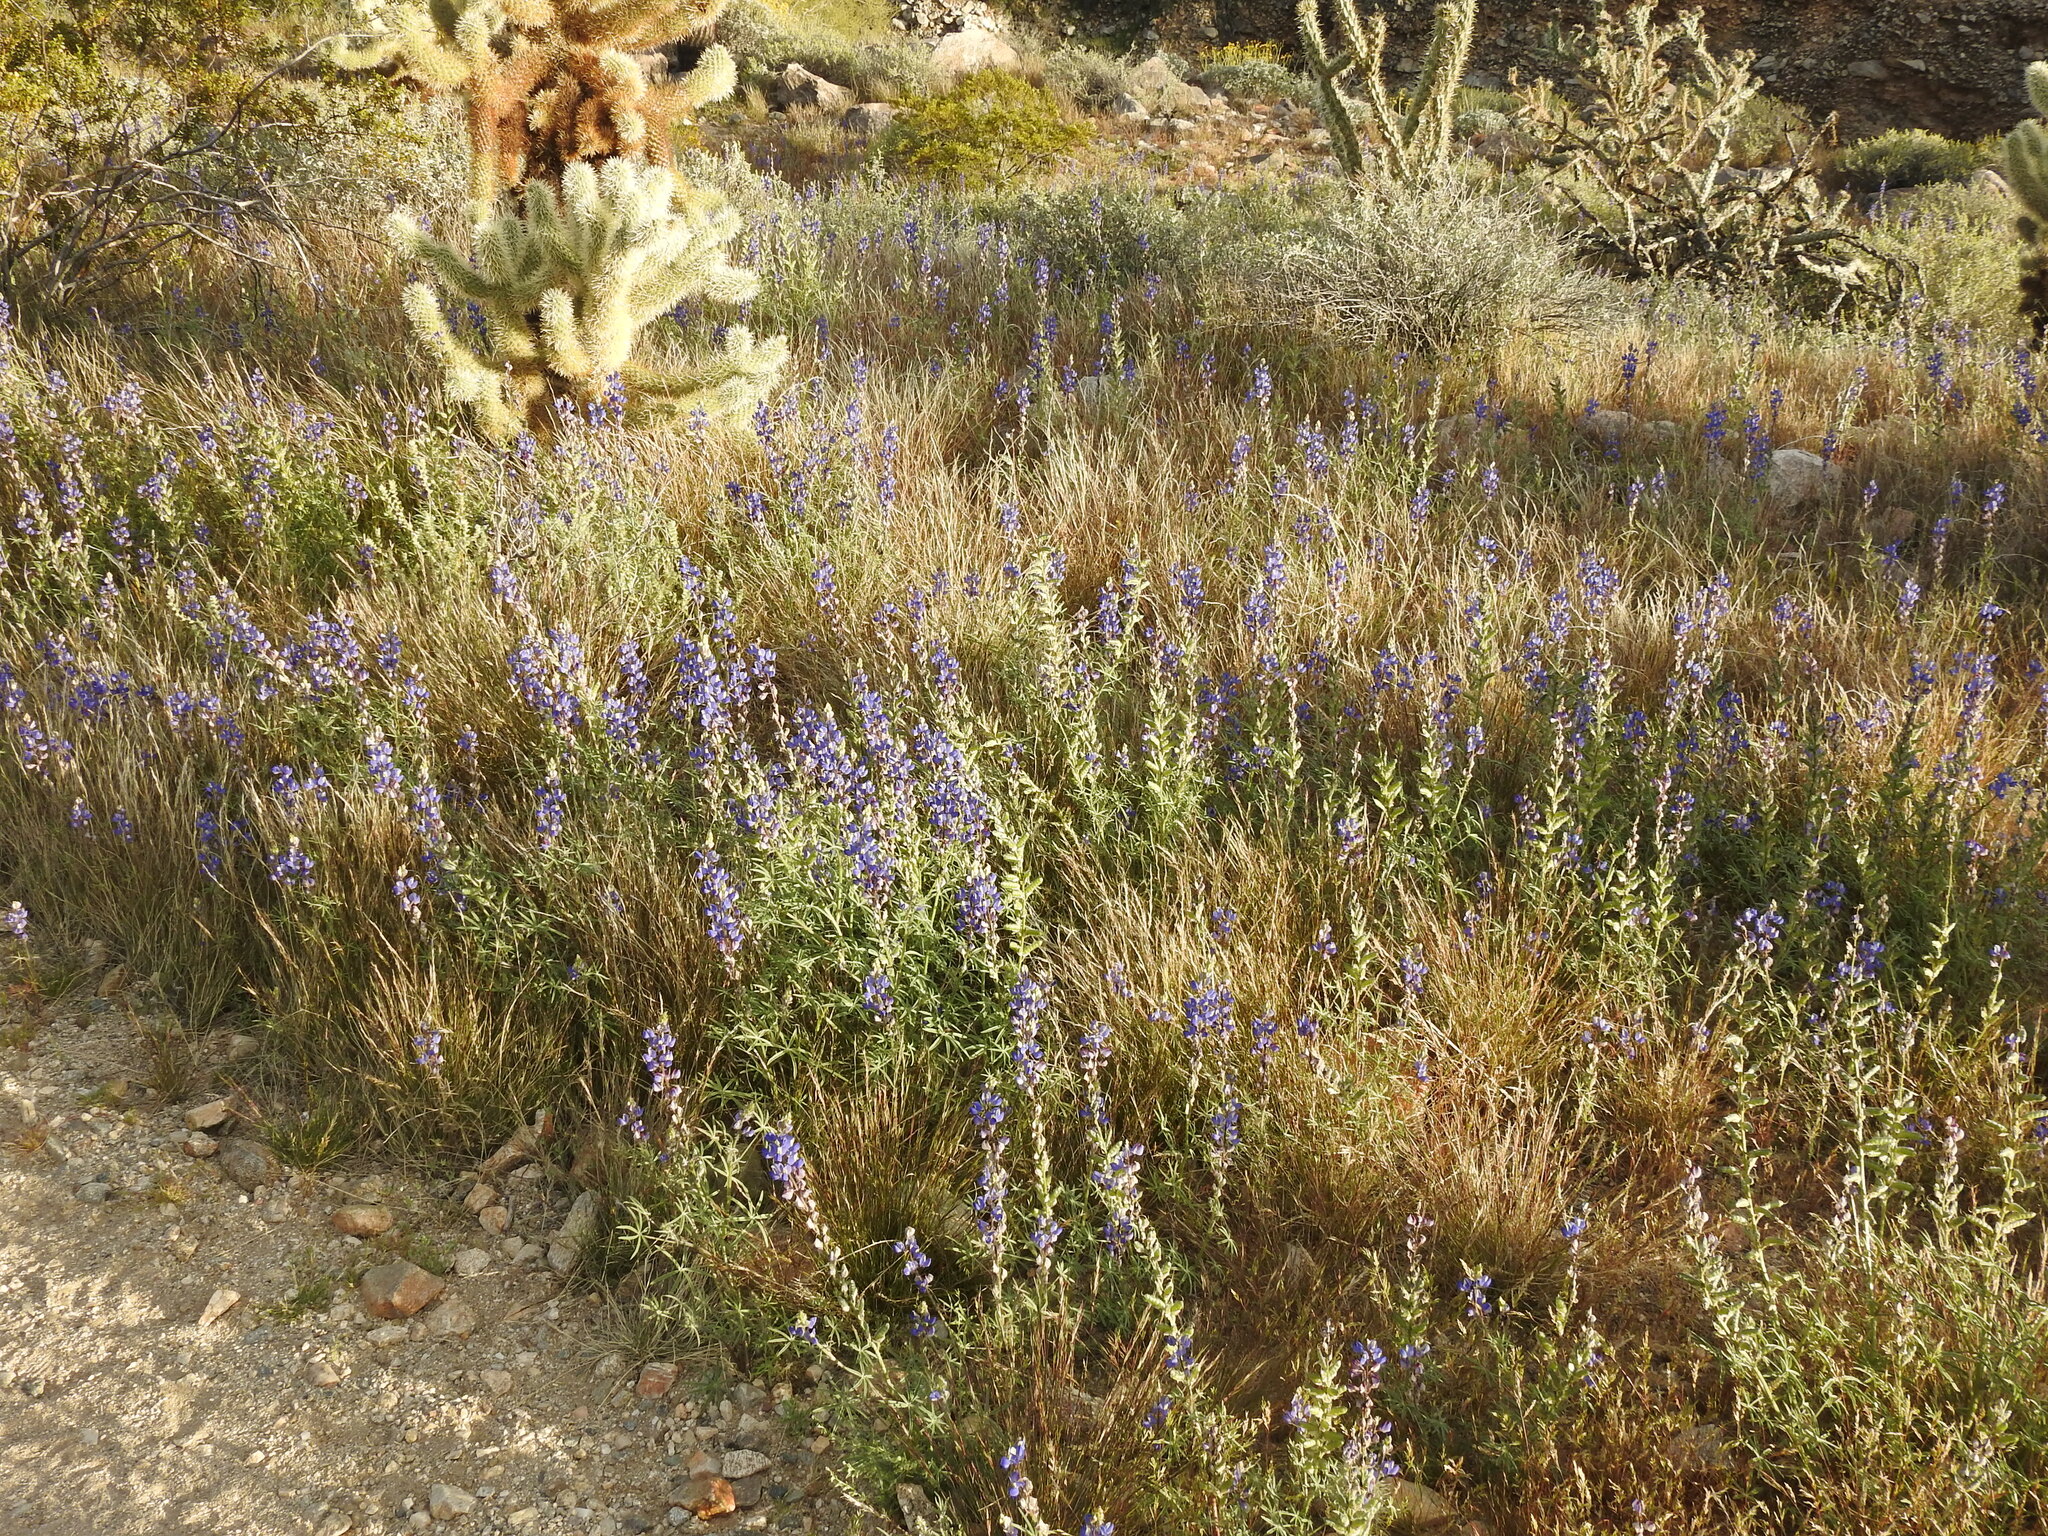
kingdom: Plantae
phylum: Tracheophyta
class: Magnoliopsida
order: Fabales
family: Fabaceae
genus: Lupinus
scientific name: Lupinus sparsiflorus
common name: Coulter's lupine
